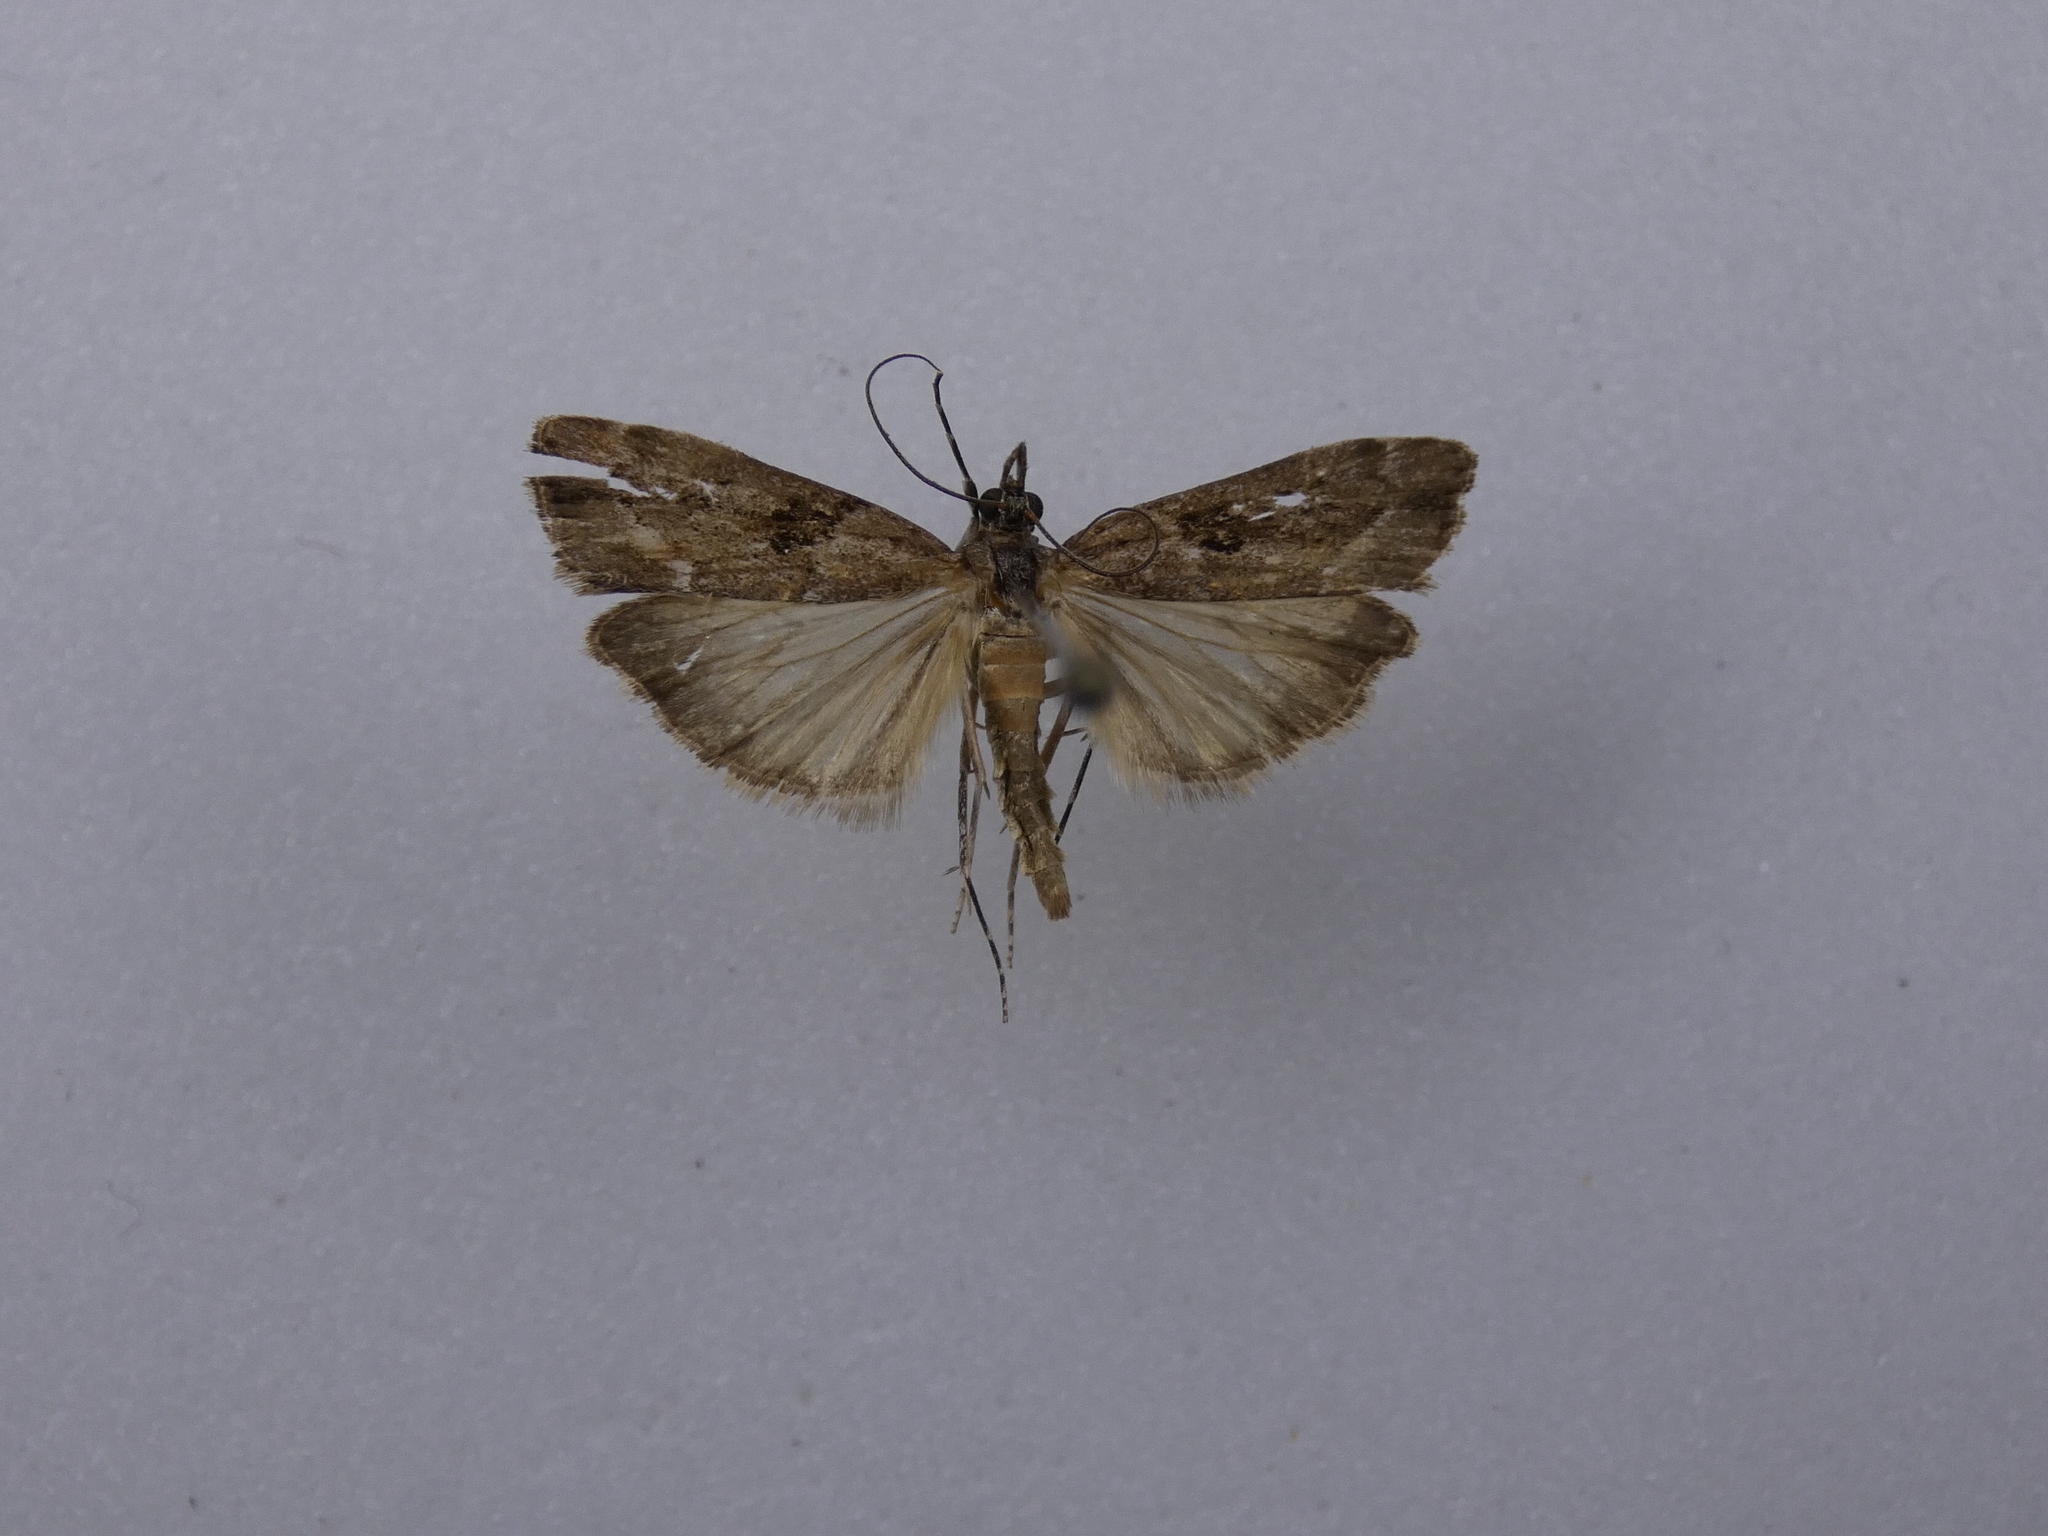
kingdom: Animalia
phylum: Arthropoda
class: Insecta
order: Lepidoptera
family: Crambidae
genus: Eudonia
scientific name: Eudonia submarginalis
